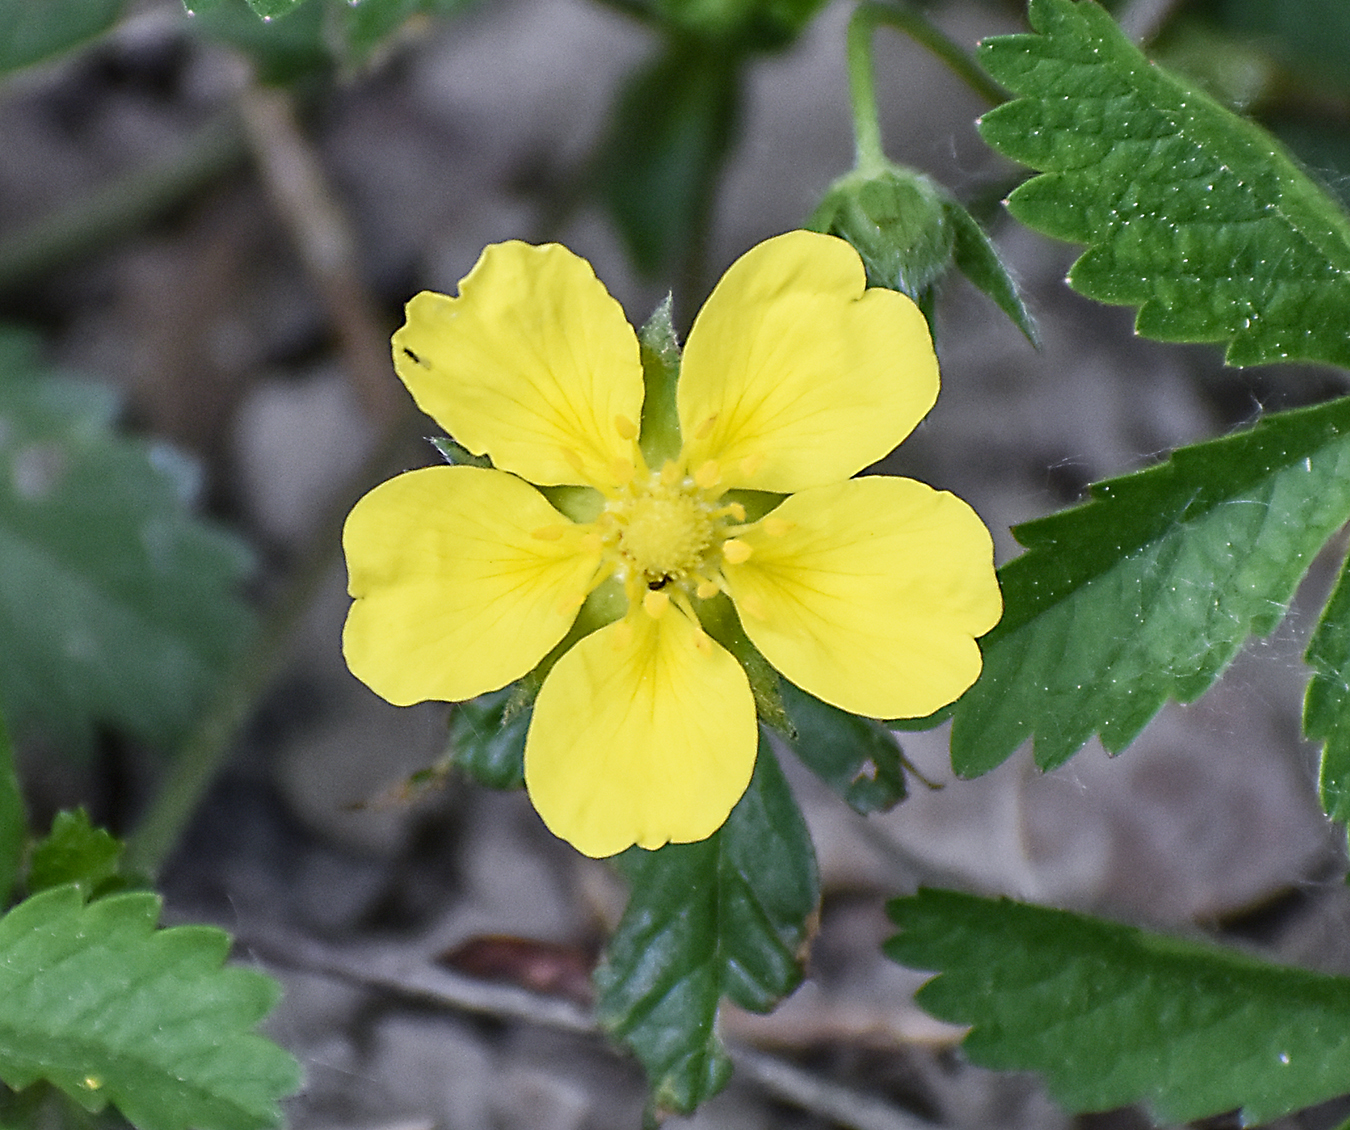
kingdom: Plantae
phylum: Tracheophyta
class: Magnoliopsida
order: Rosales
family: Rosaceae
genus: Potentilla
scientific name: Potentilla reptans
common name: Creeping cinquefoil
